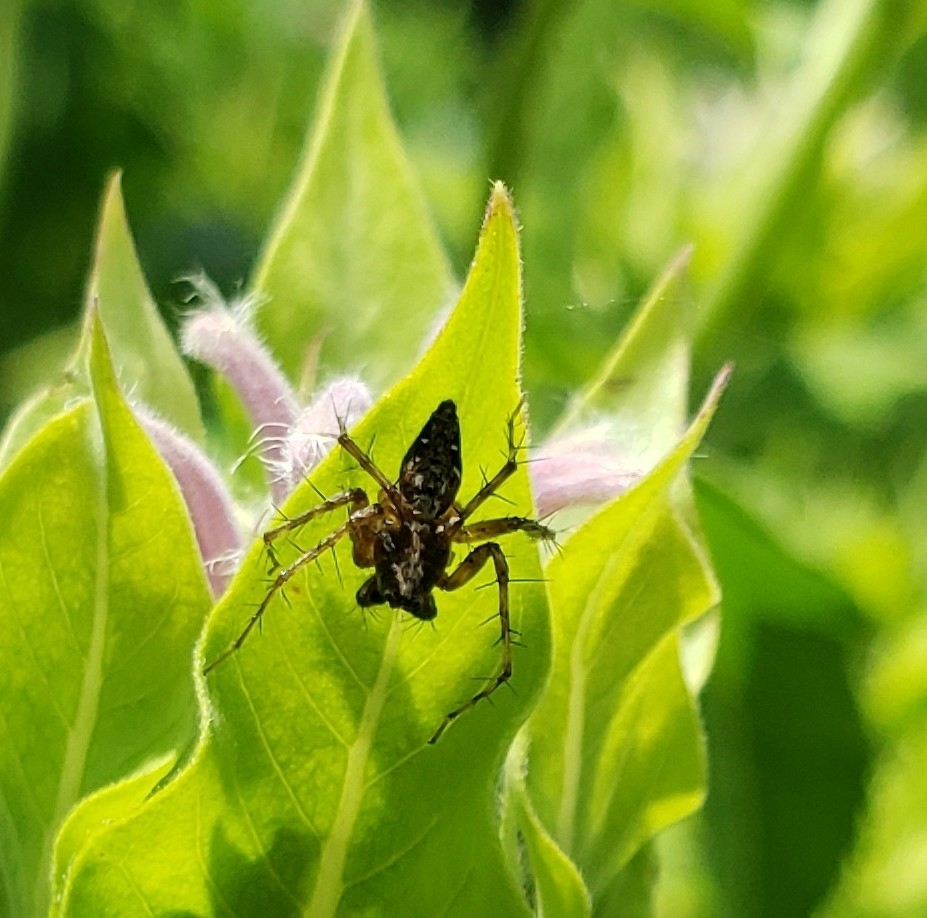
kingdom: Animalia
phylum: Arthropoda
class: Arachnida
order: Araneae
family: Oxyopidae
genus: Oxyopes
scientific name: Oxyopes scalaris
